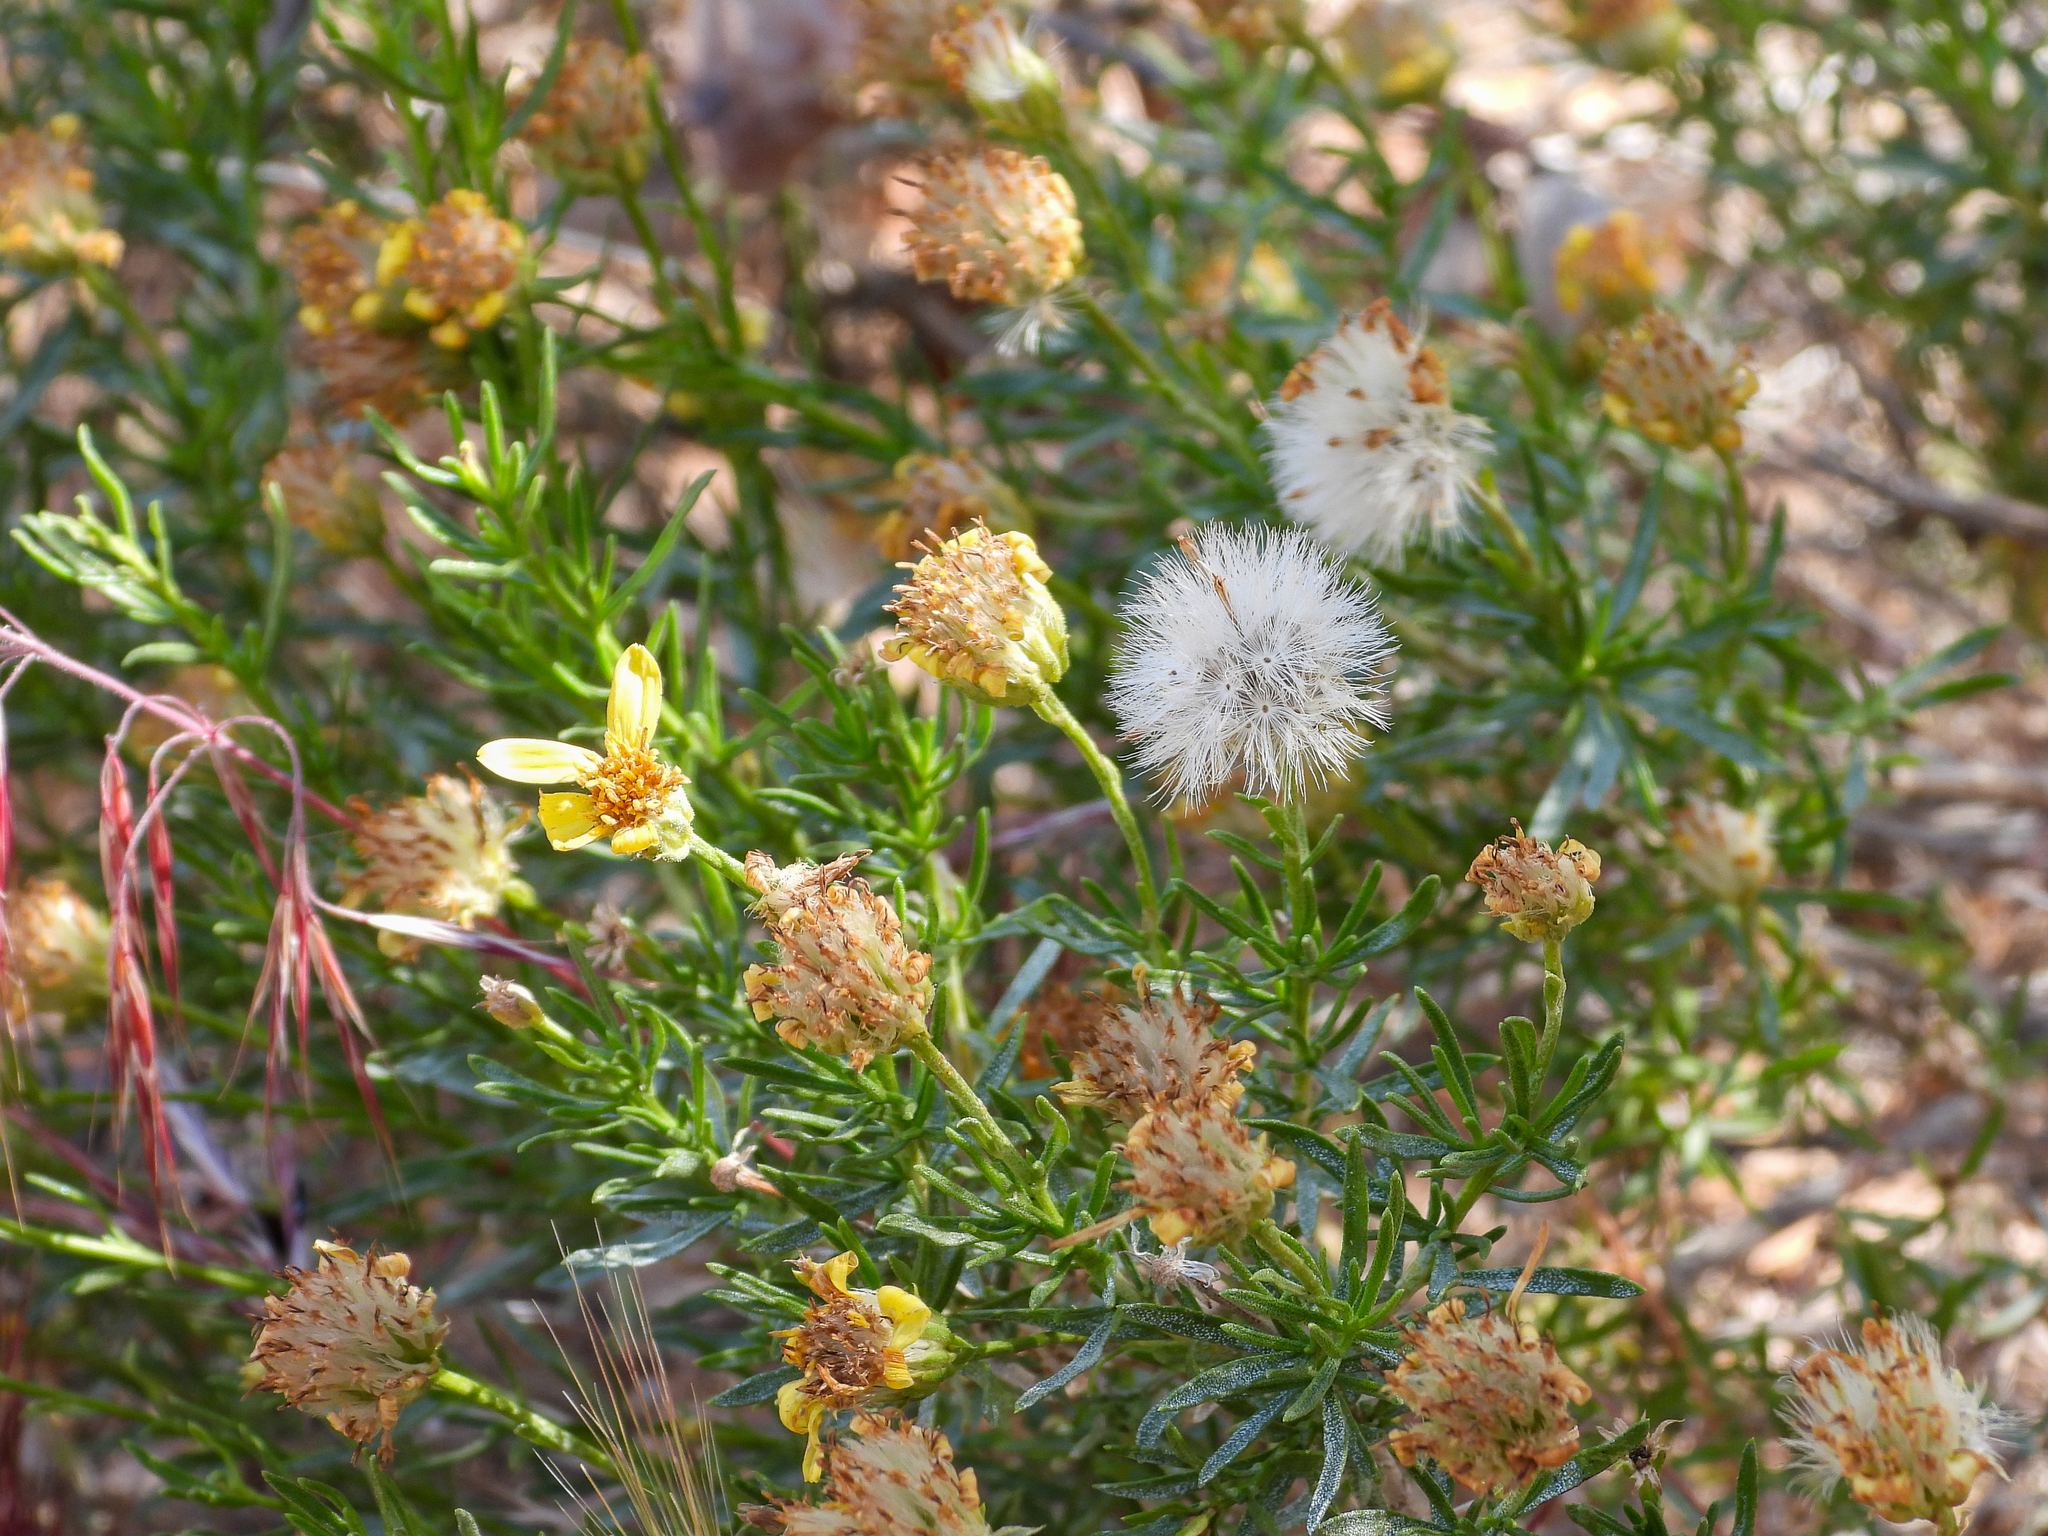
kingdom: Plantae
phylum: Tracheophyta
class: Magnoliopsida
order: Asterales
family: Asteraceae
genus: Ericameria
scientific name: Ericameria linearifolia
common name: Interior goldenbush
